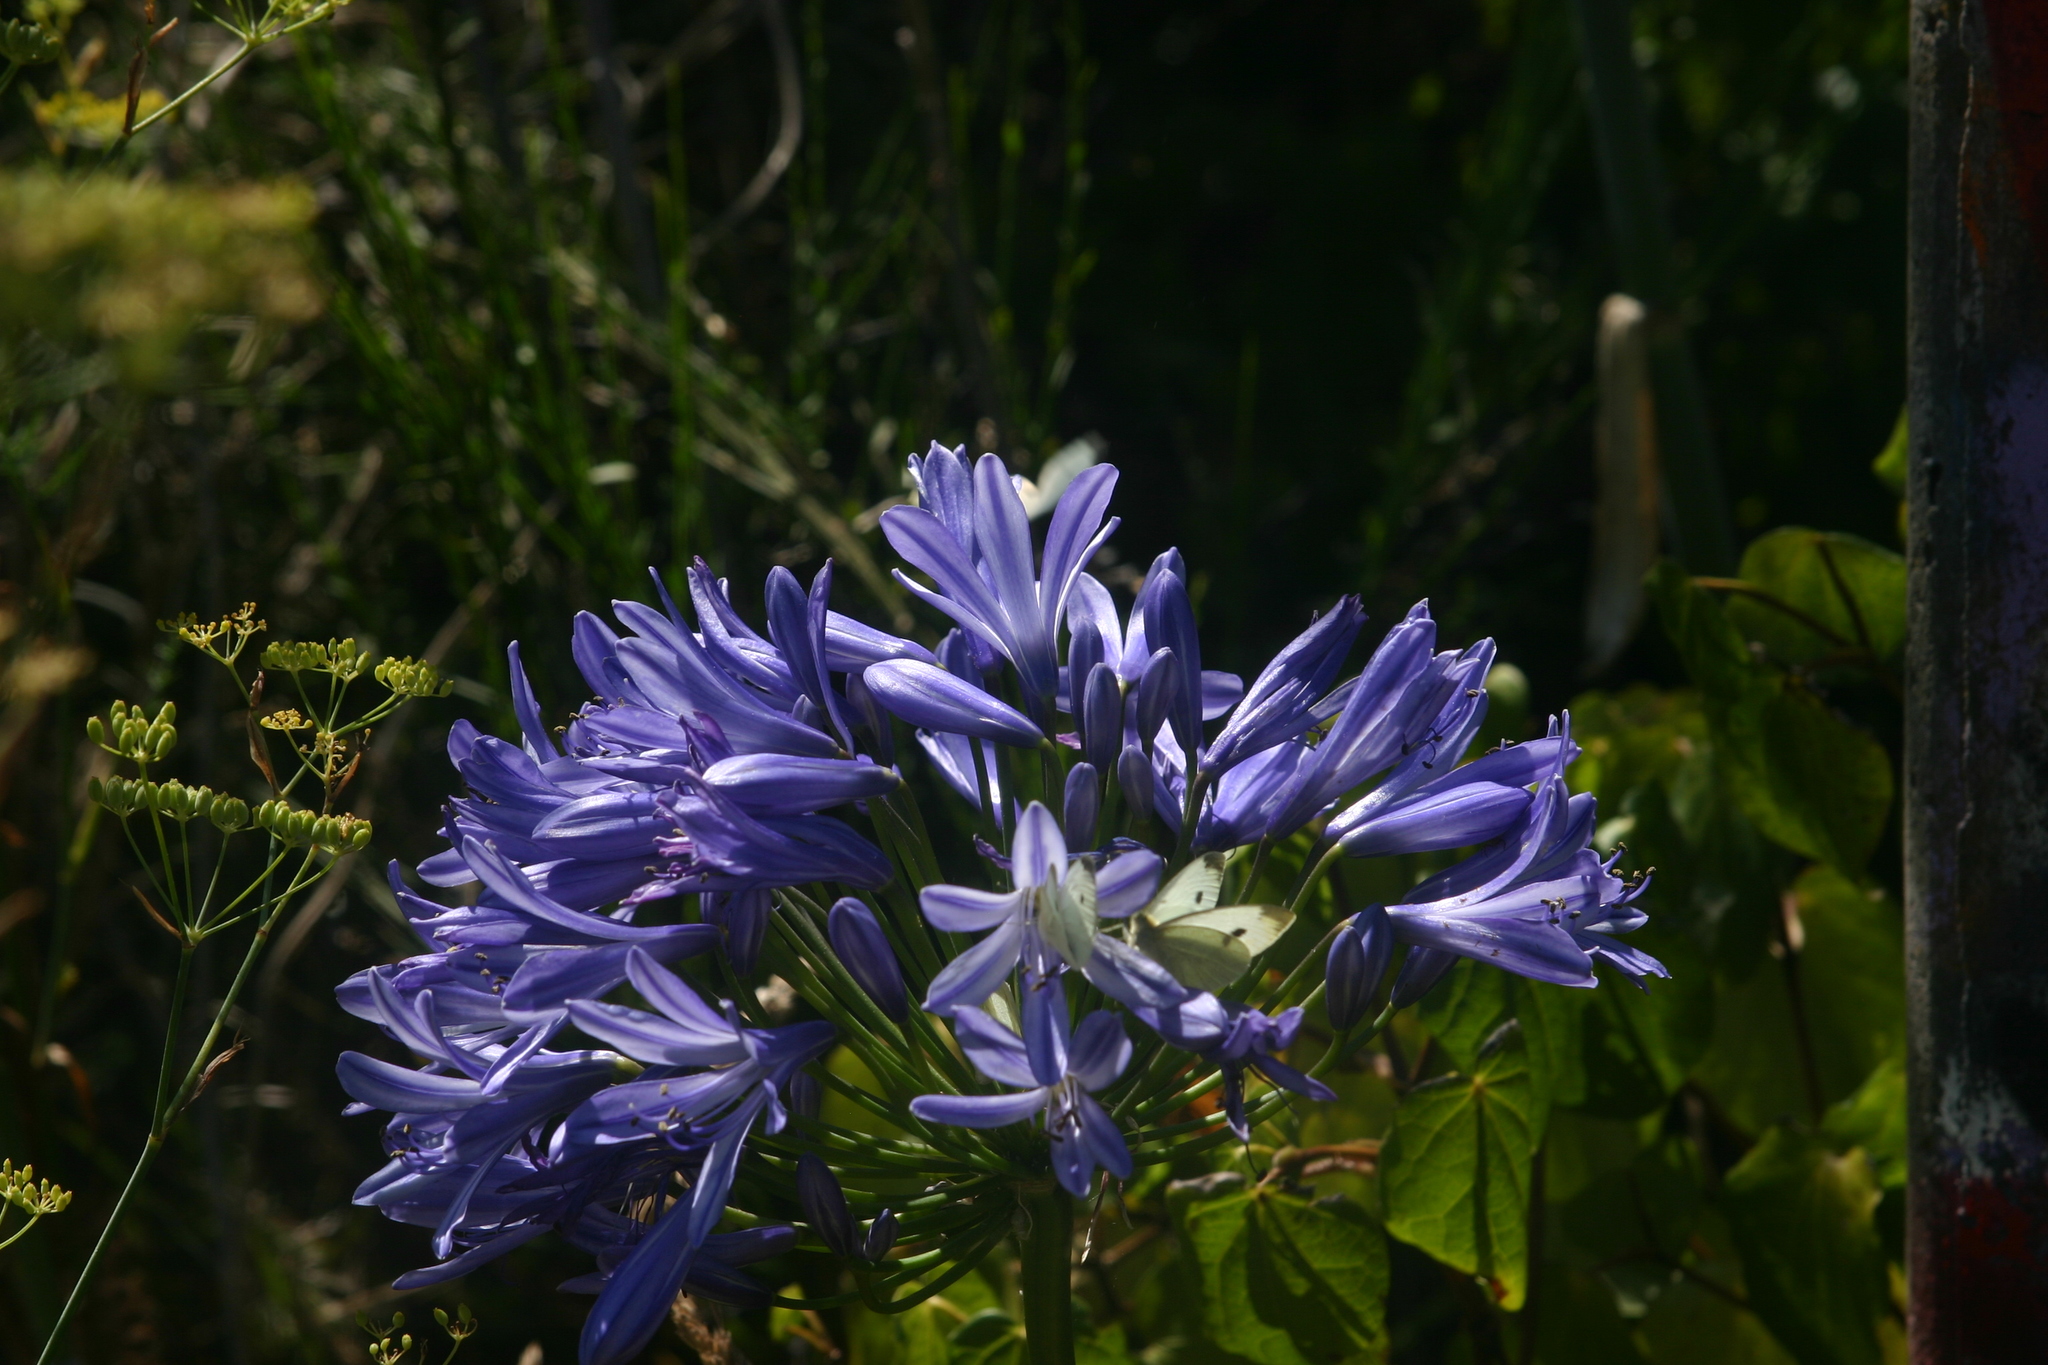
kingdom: Animalia
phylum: Arthropoda
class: Insecta
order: Lepidoptera
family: Pieridae
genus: Pieris
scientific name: Pieris rapae
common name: Small white
